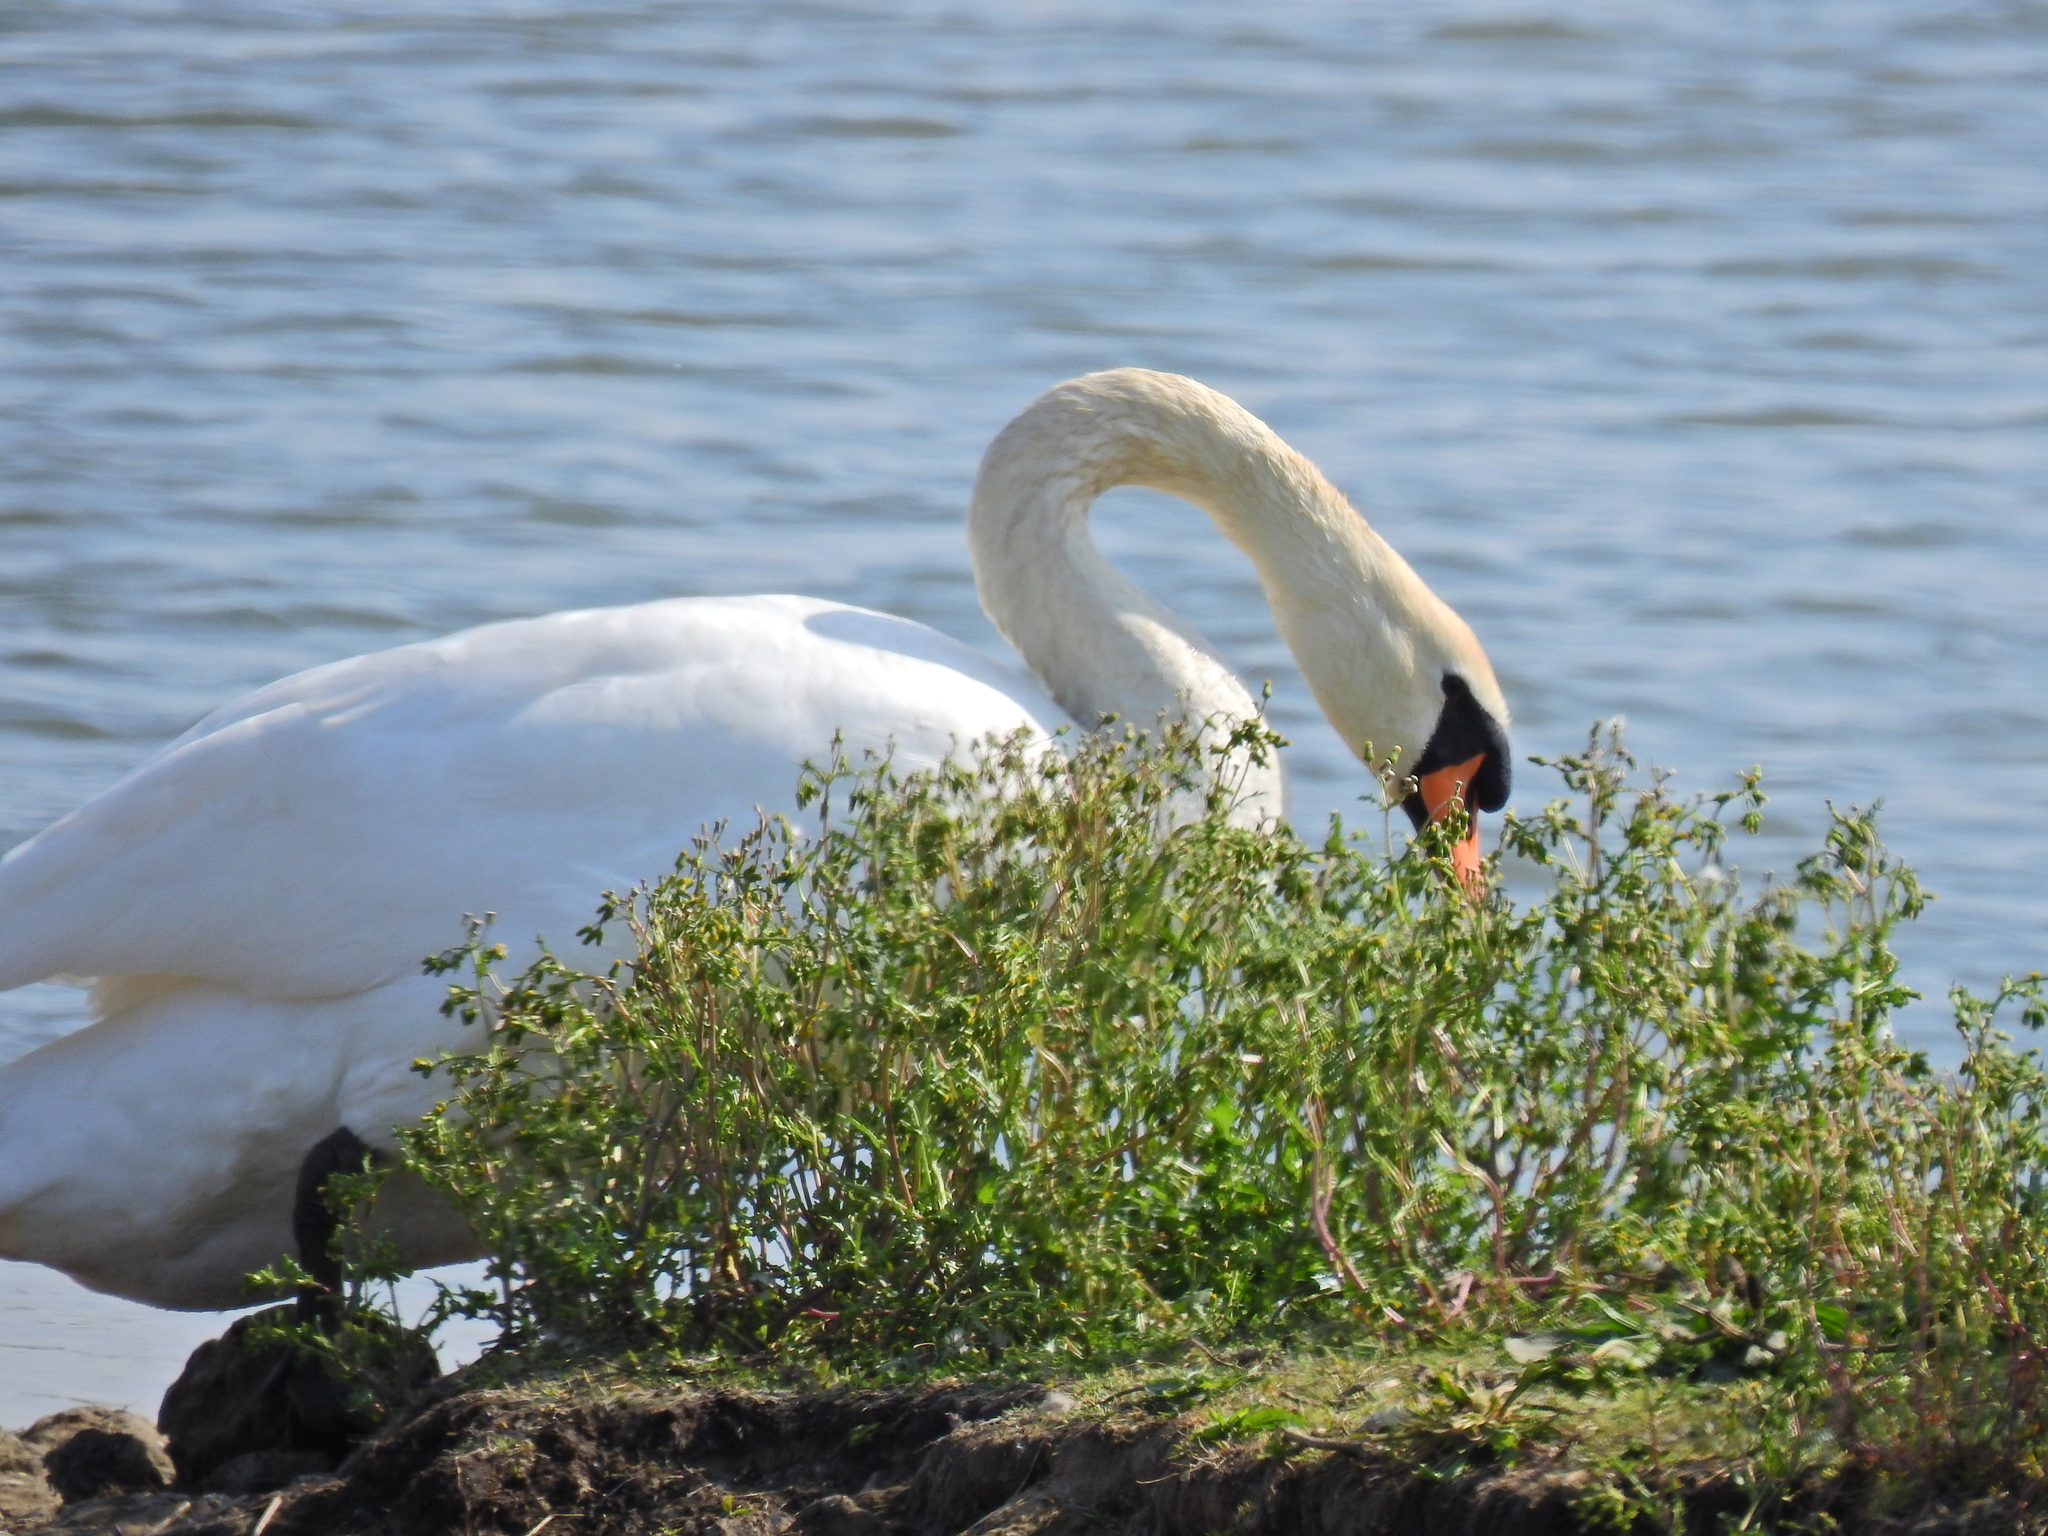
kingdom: Animalia
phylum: Chordata
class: Aves
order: Anseriformes
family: Anatidae
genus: Cygnus
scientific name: Cygnus olor
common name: Mute swan
